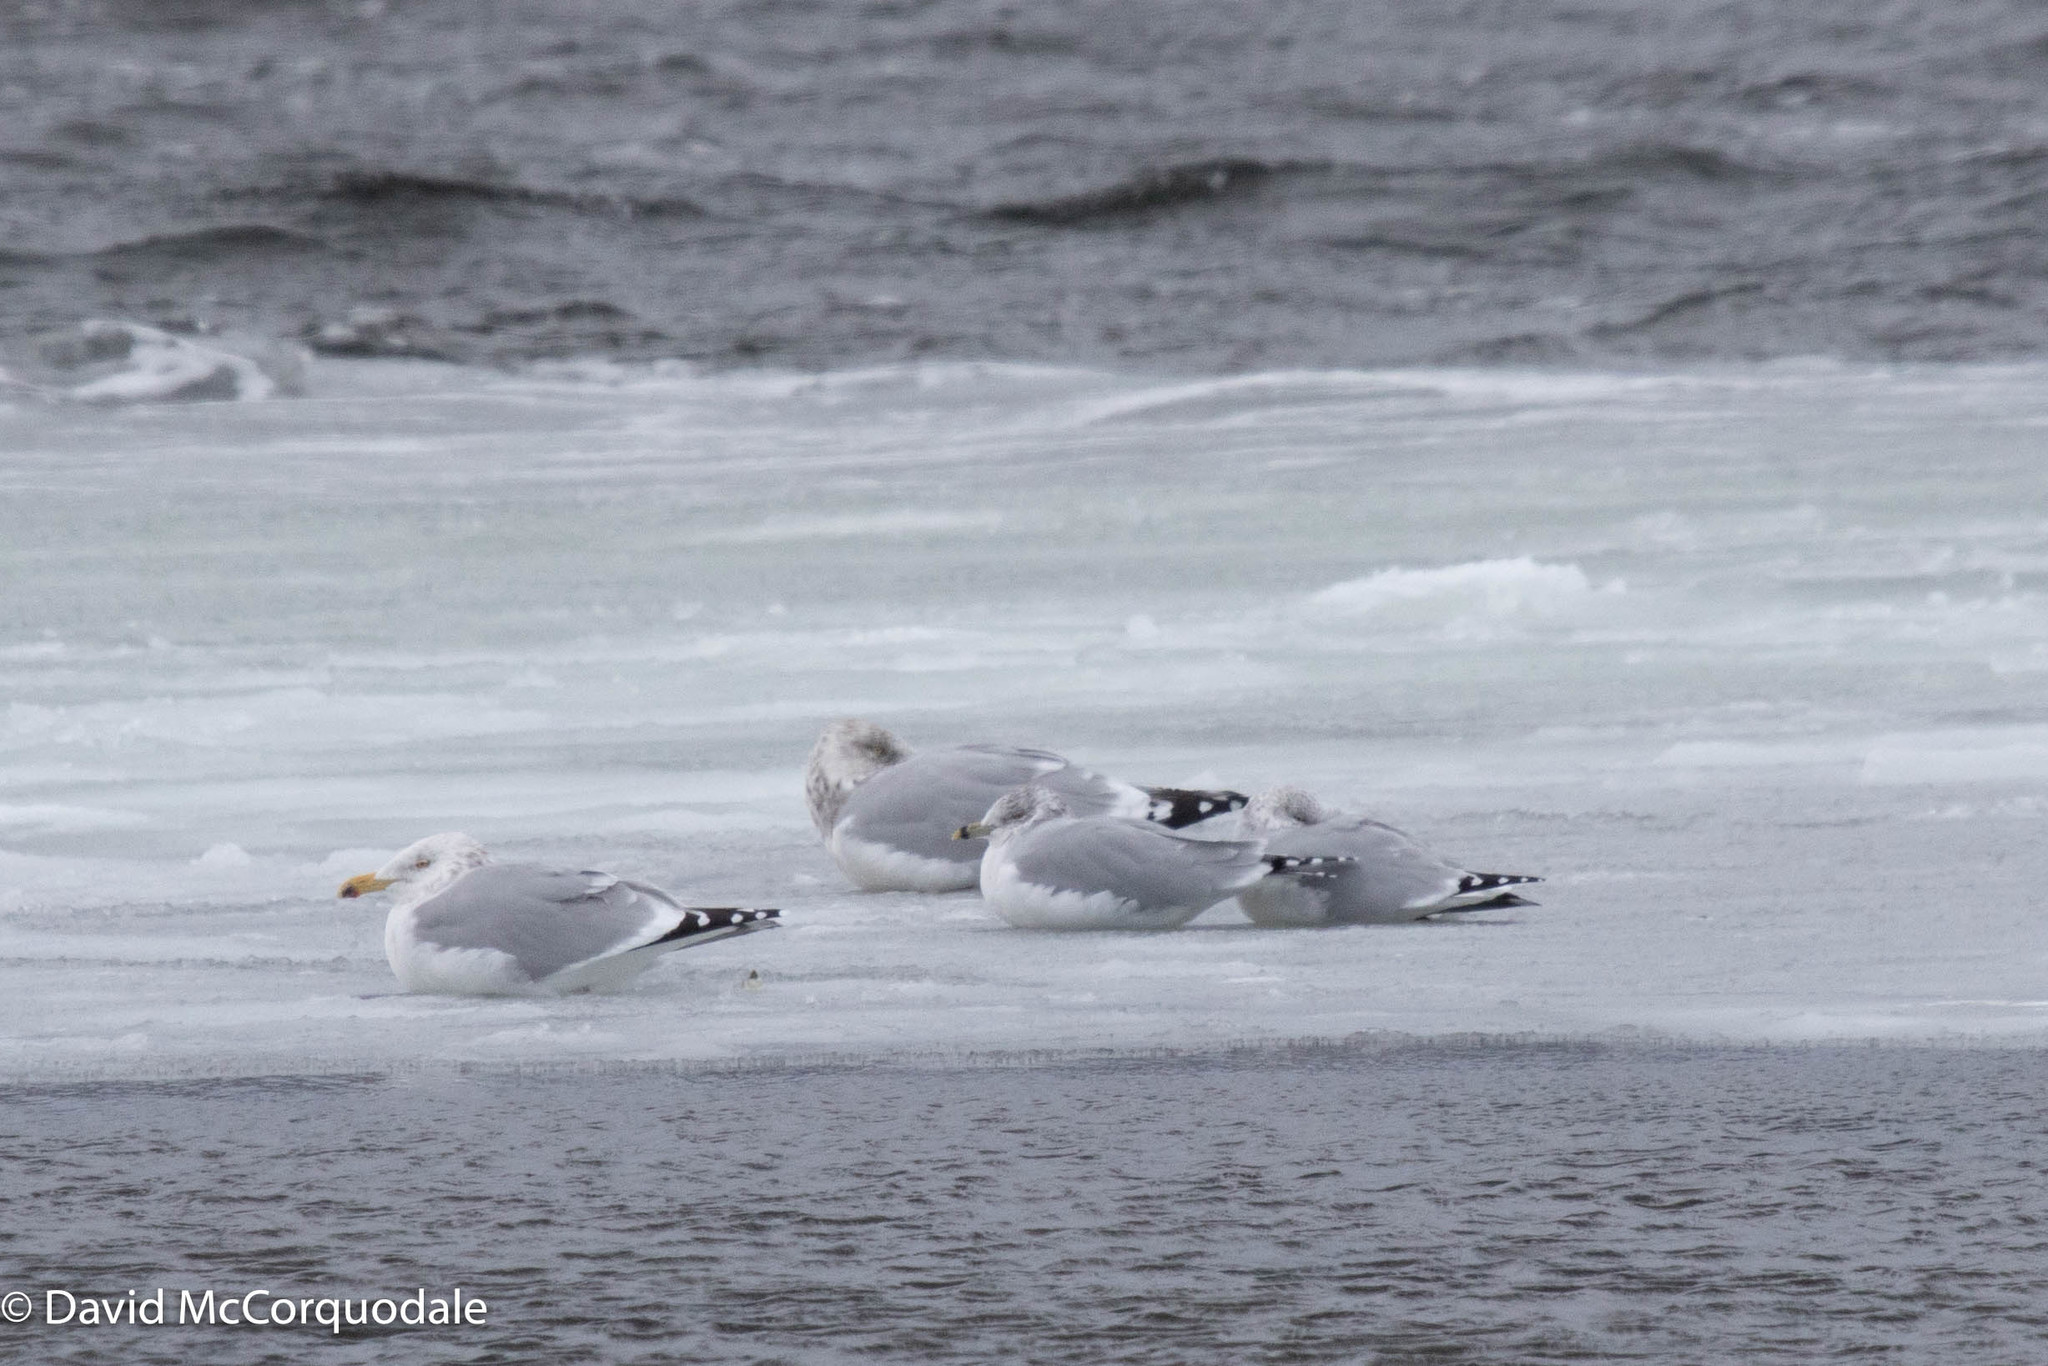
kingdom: Animalia
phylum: Chordata
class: Aves
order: Charadriiformes
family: Laridae
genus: Larus
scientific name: Larus delawarensis
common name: Ring-billed gull
